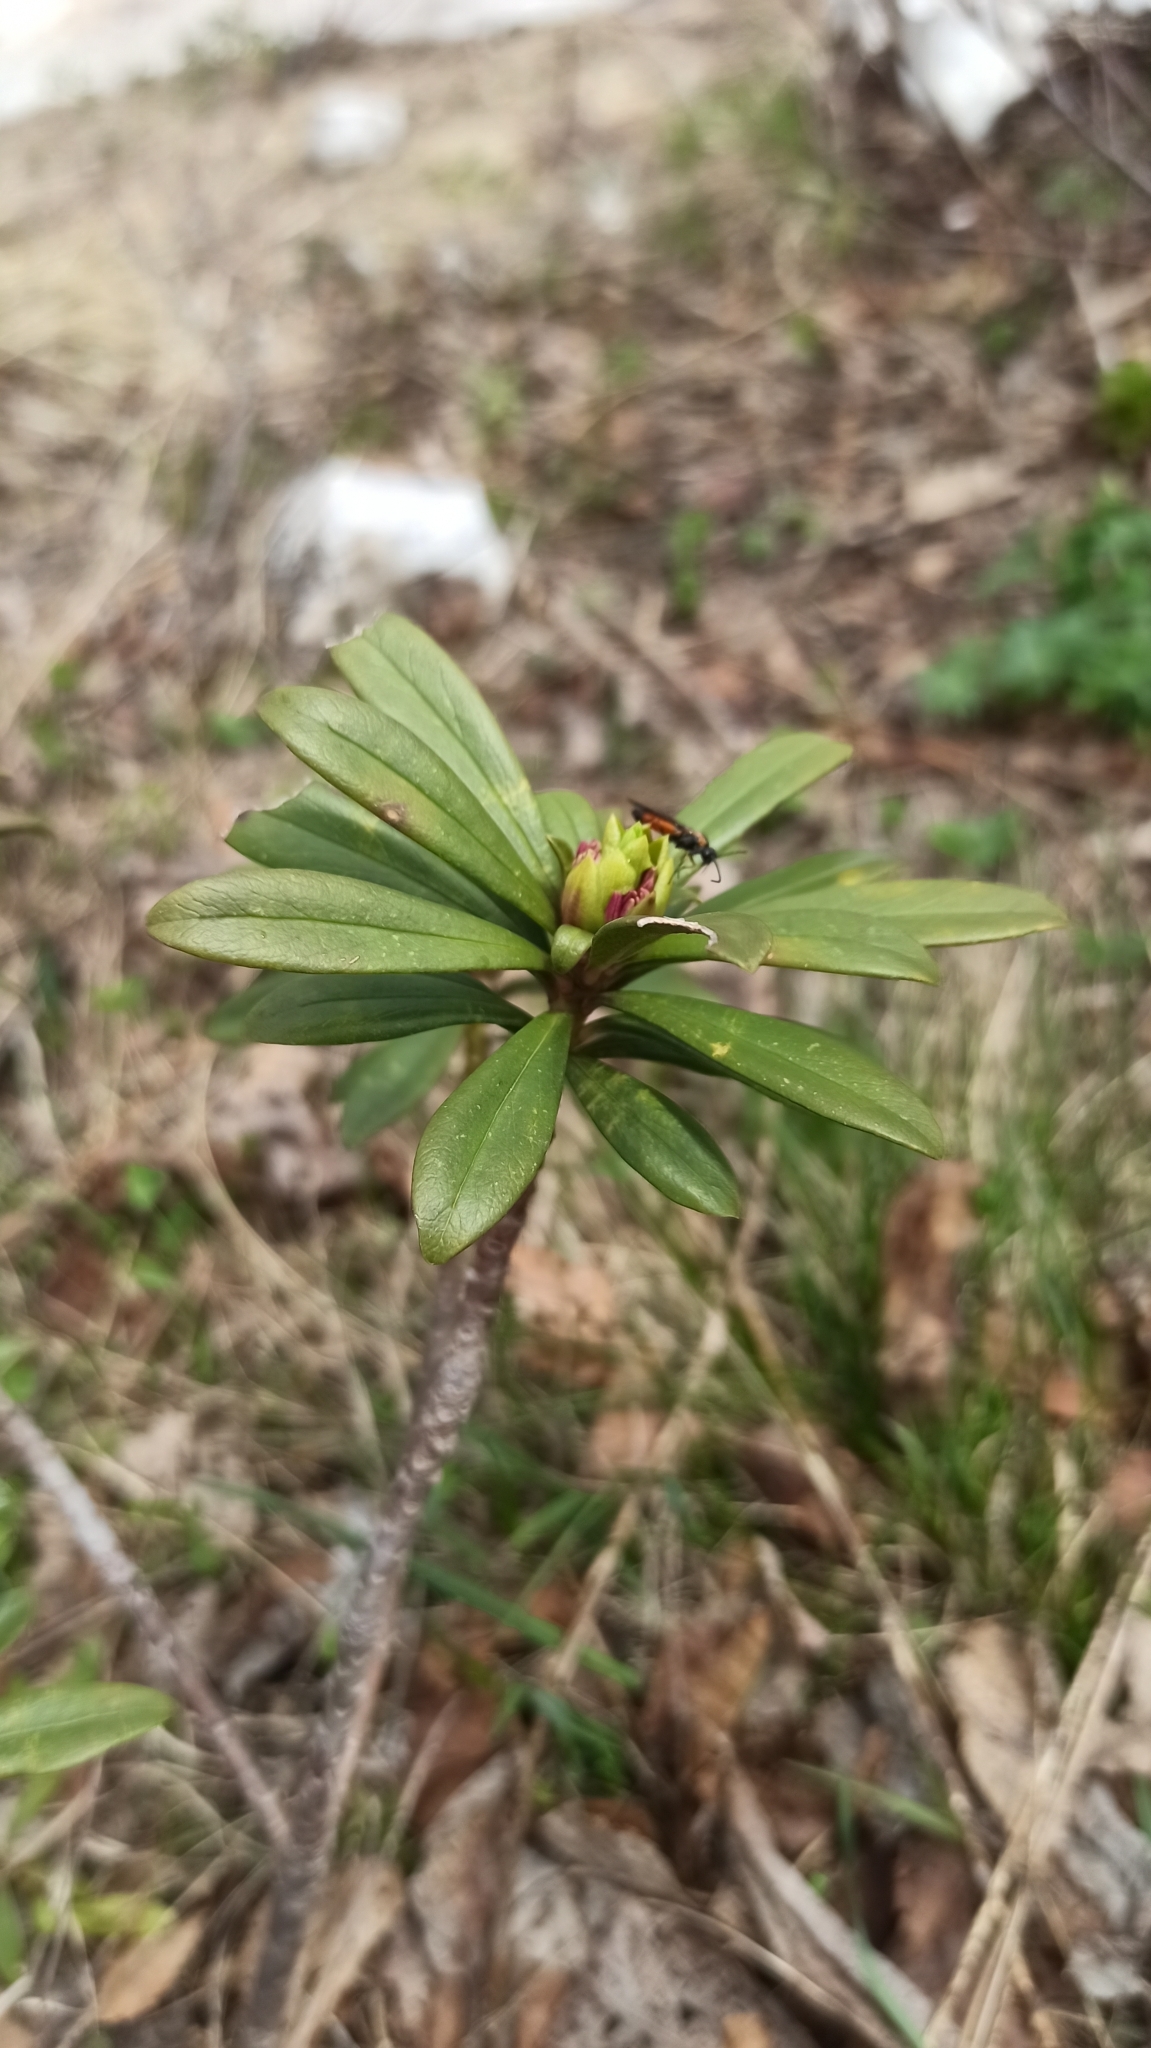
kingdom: Plantae
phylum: Tracheophyta
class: Magnoliopsida
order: Malvales
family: Thymelaeaceae
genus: Daphne
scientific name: Daphne glomerata
